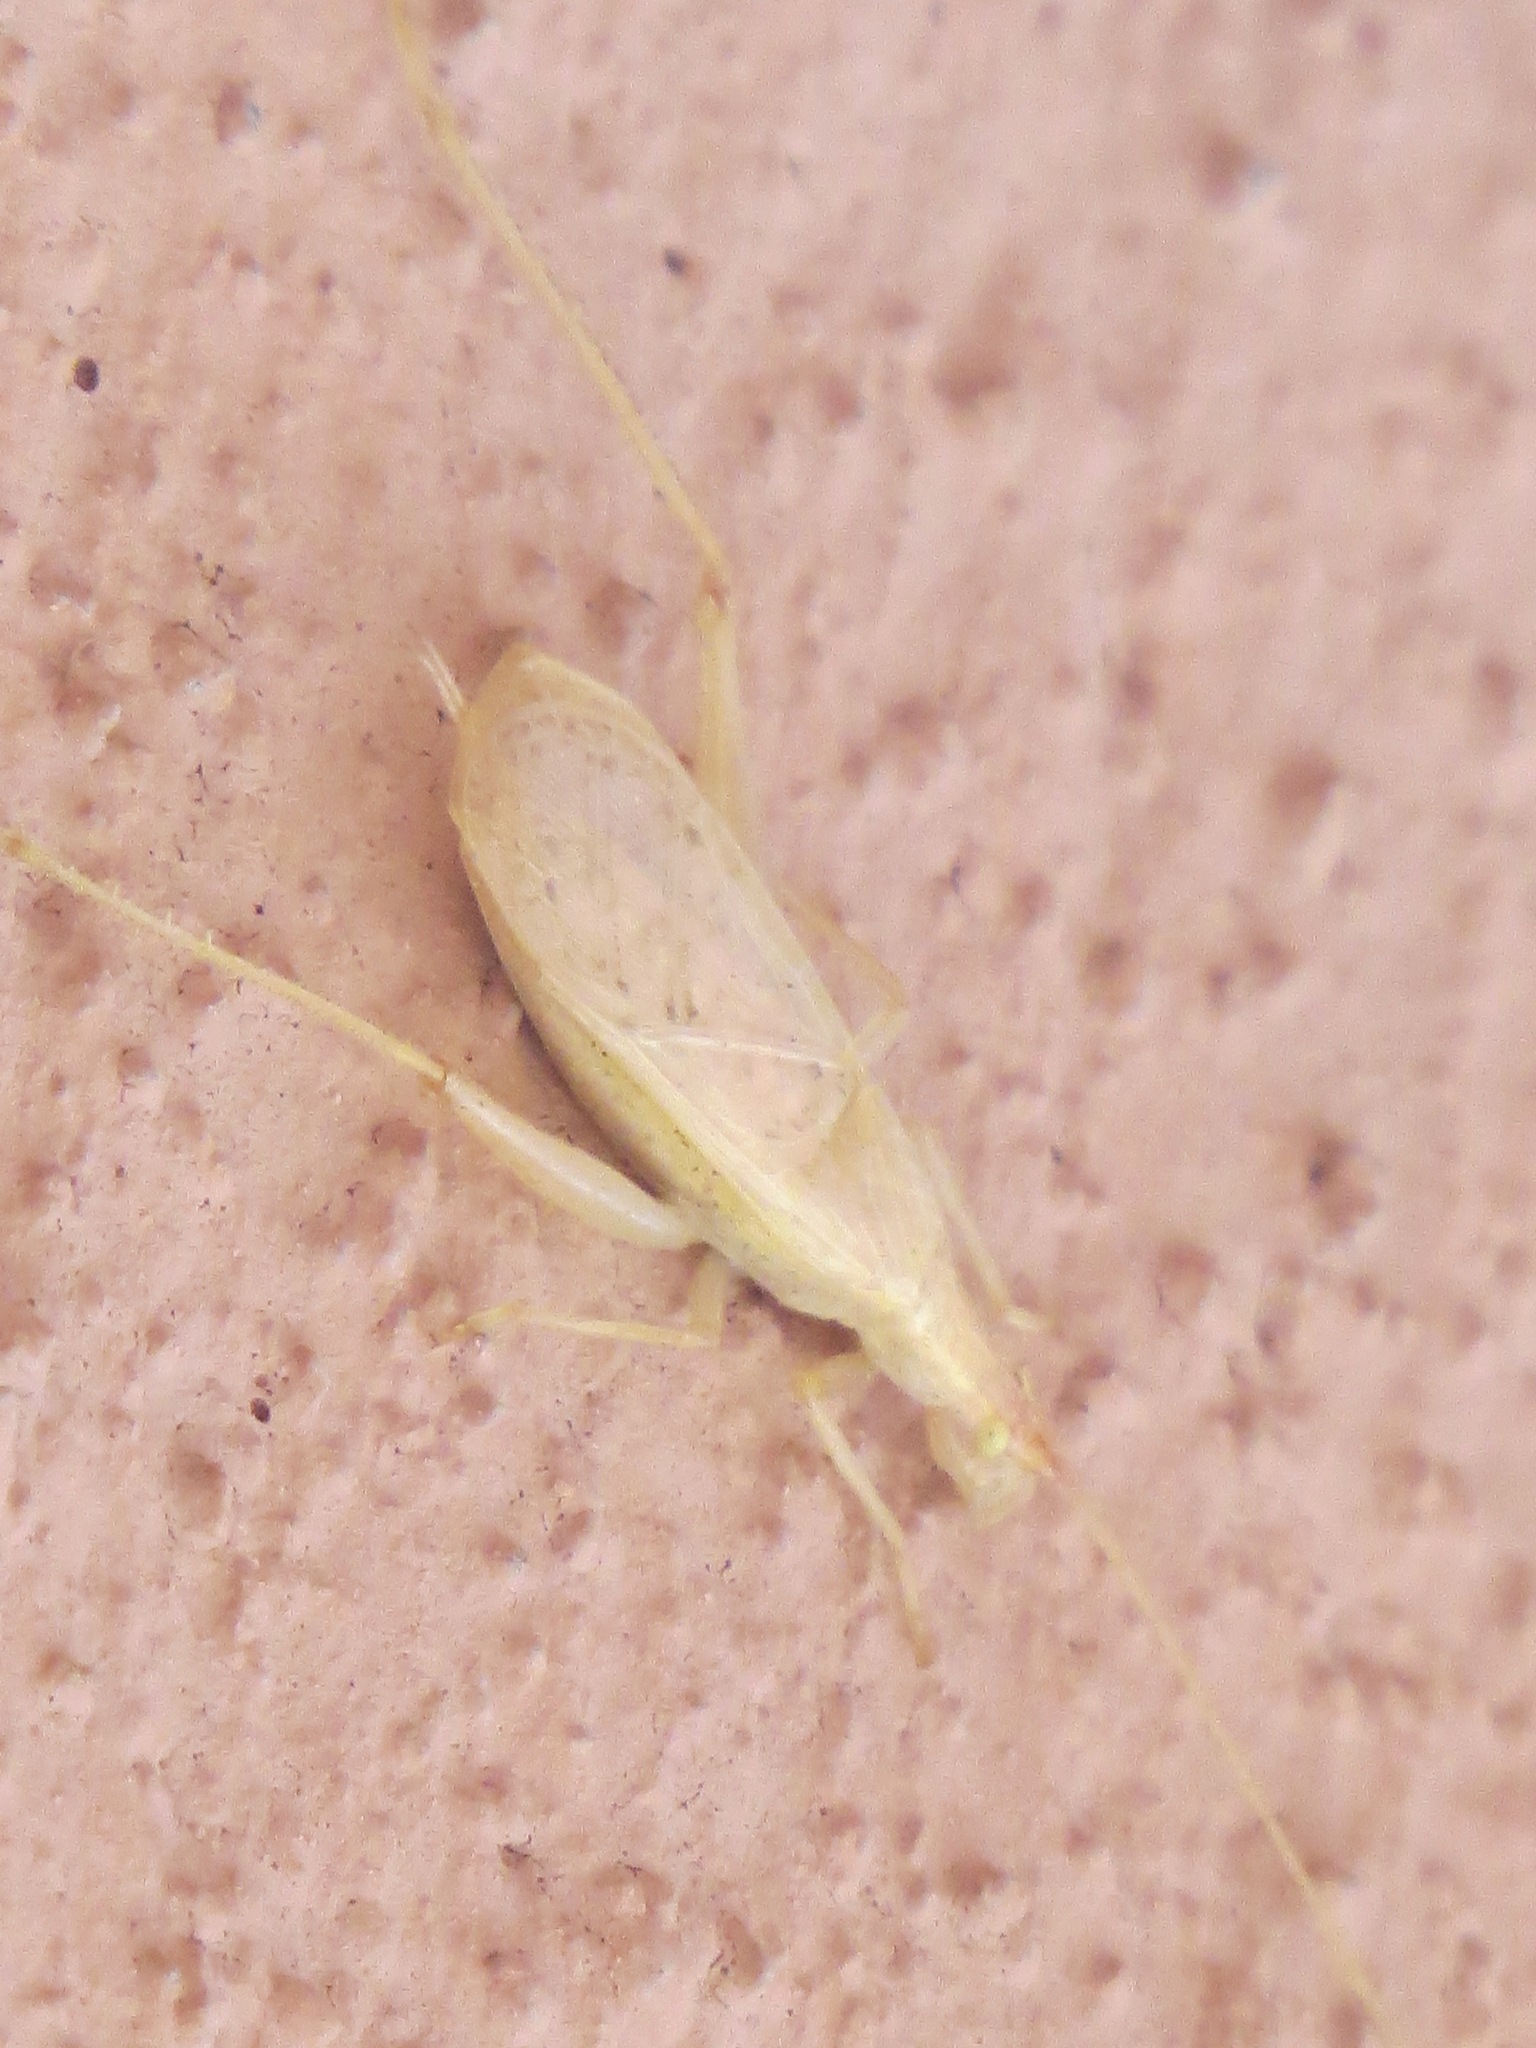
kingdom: Animalia
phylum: Arthropoda
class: Insecta
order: Orthoptera
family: Gryllidae
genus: Oecanthus
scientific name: Oecanthus californicus
